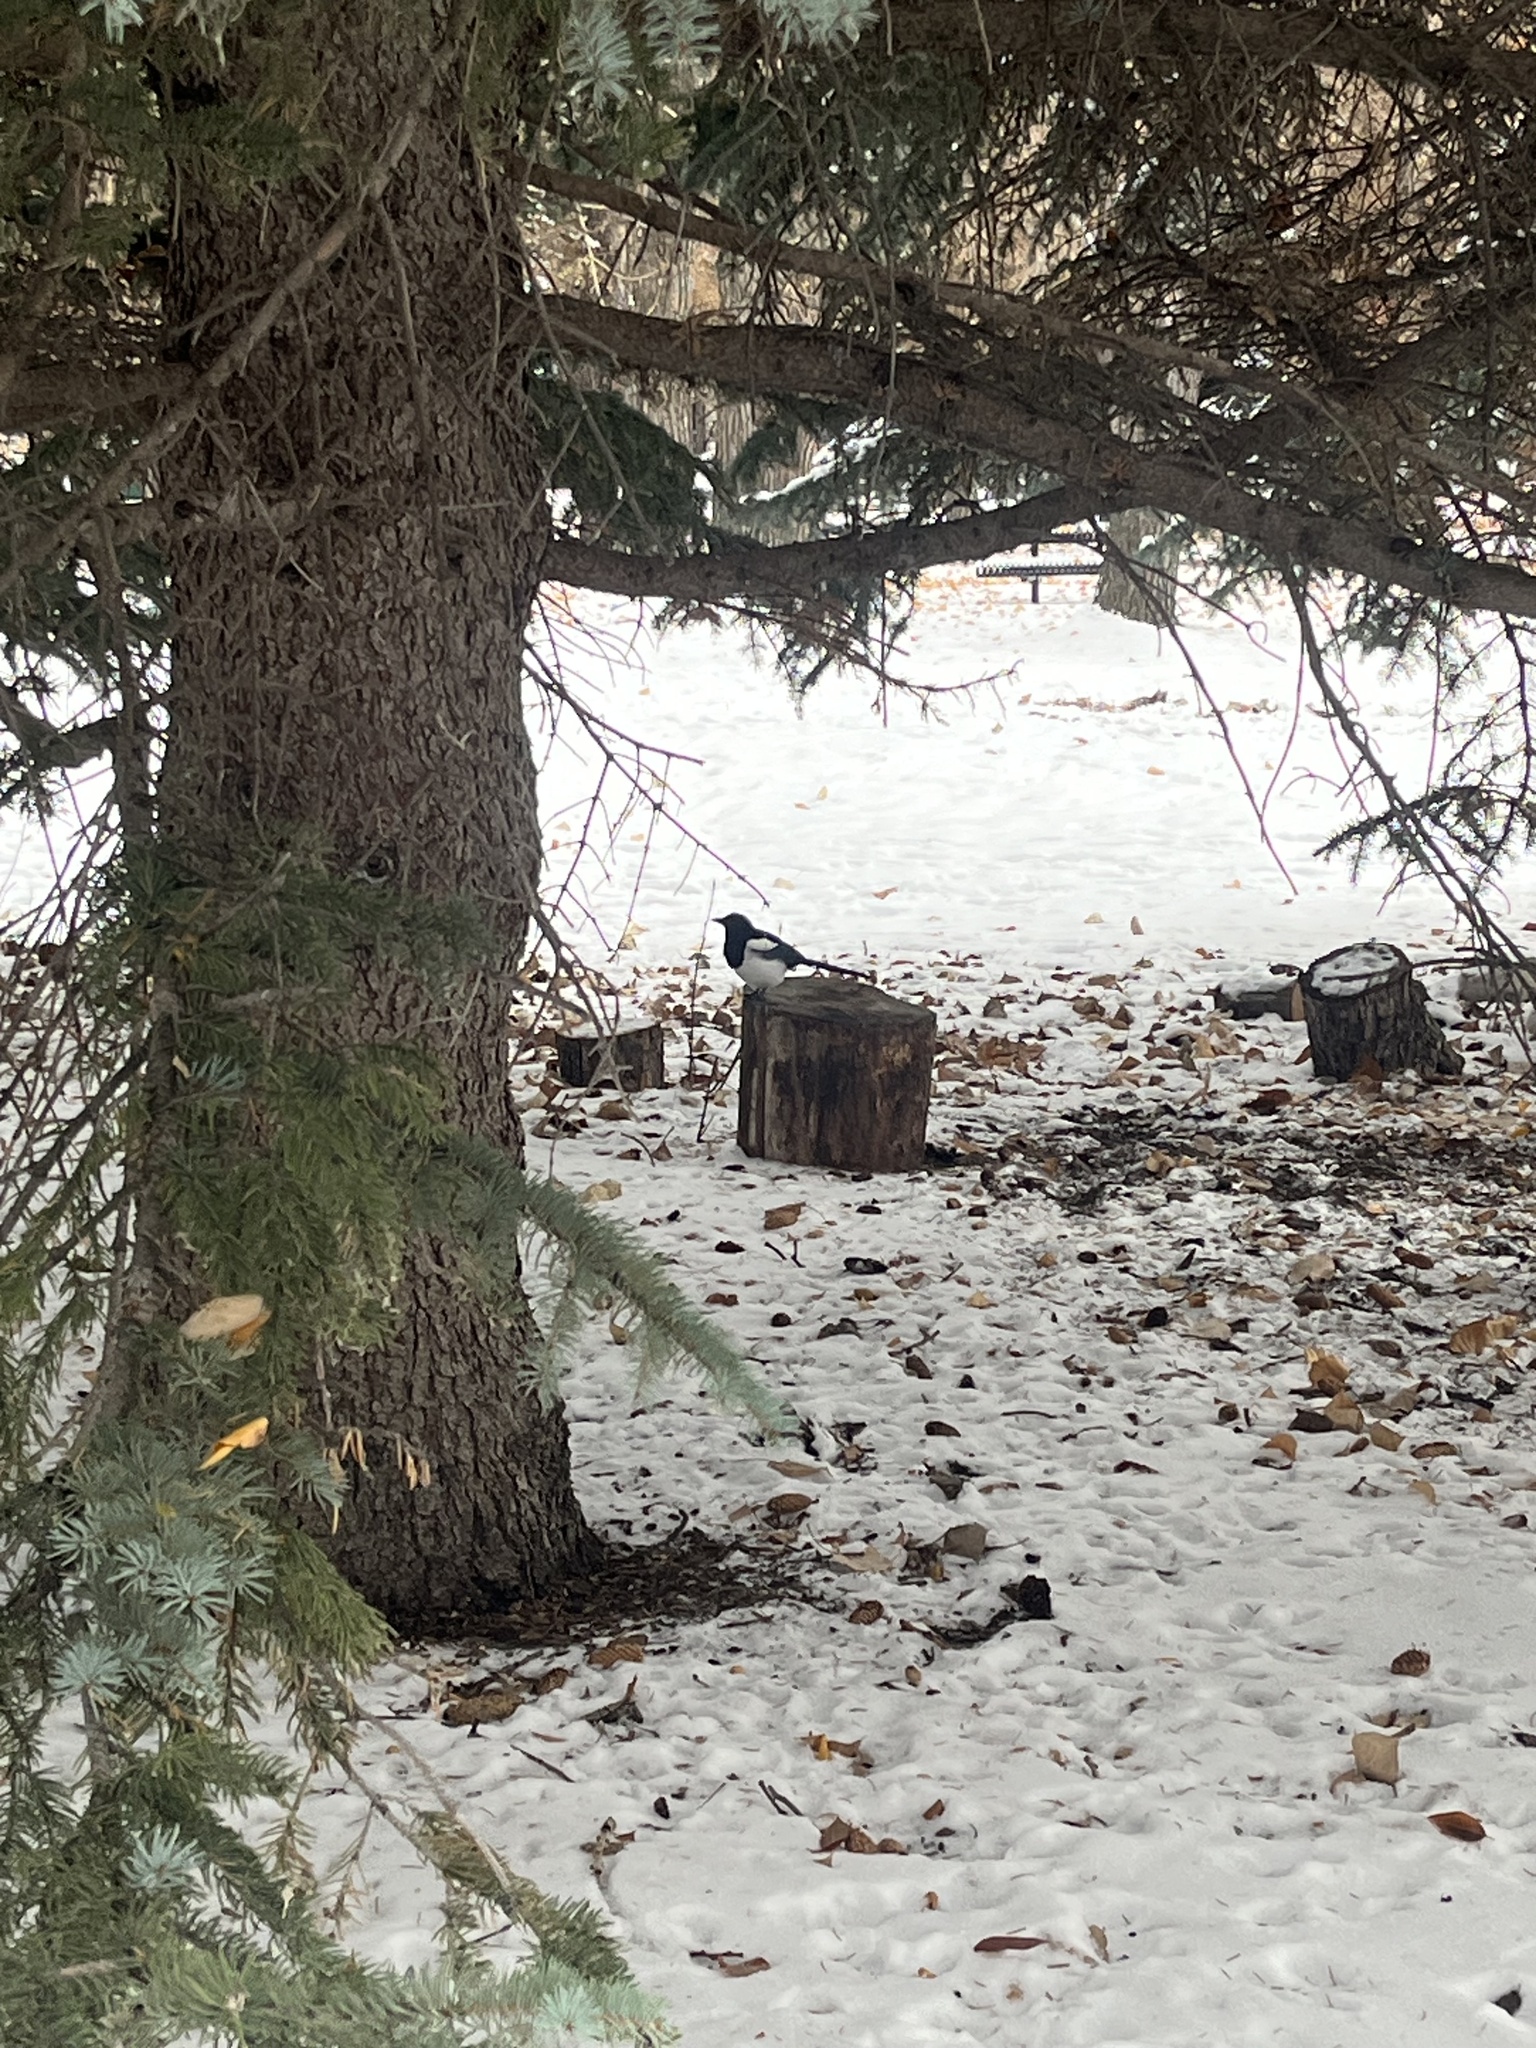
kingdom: Animalia
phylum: Chordata
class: Aves
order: Passeriformes
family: Corvidae
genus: Pica
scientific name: Pica hudsonia
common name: Black-billed magpie
